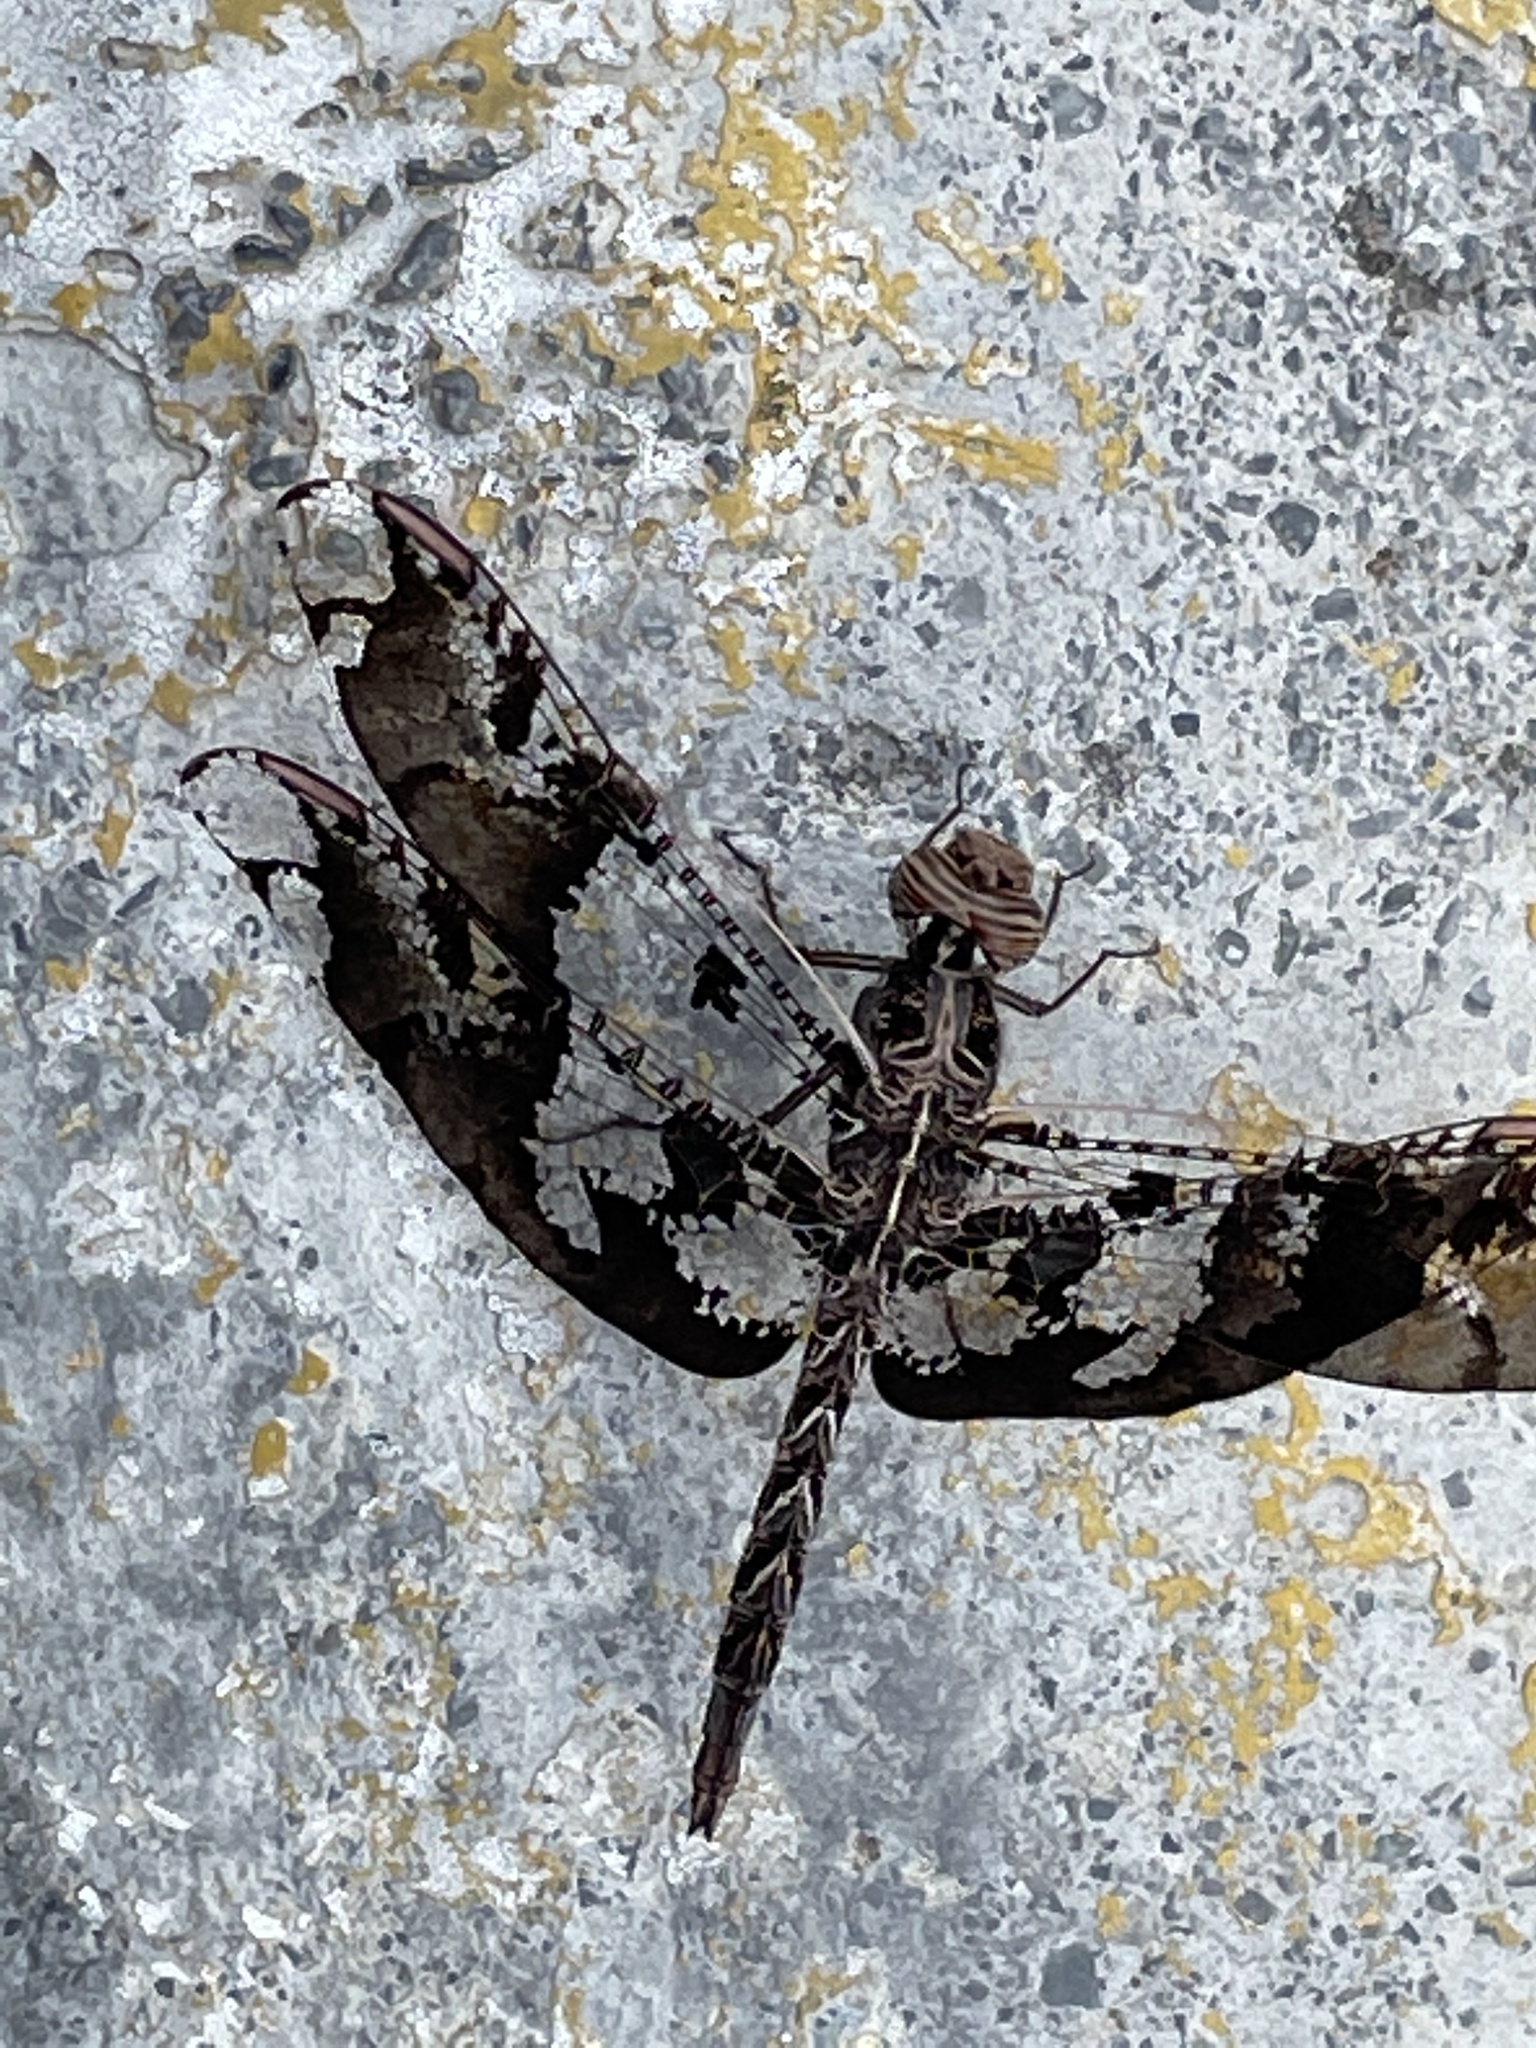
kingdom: Animalia
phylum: Arthropoda
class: Insecta
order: Odonata
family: Libellulidae
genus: Pseudoleon
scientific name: Pseudoleon superbus
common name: Filigree skimmer
